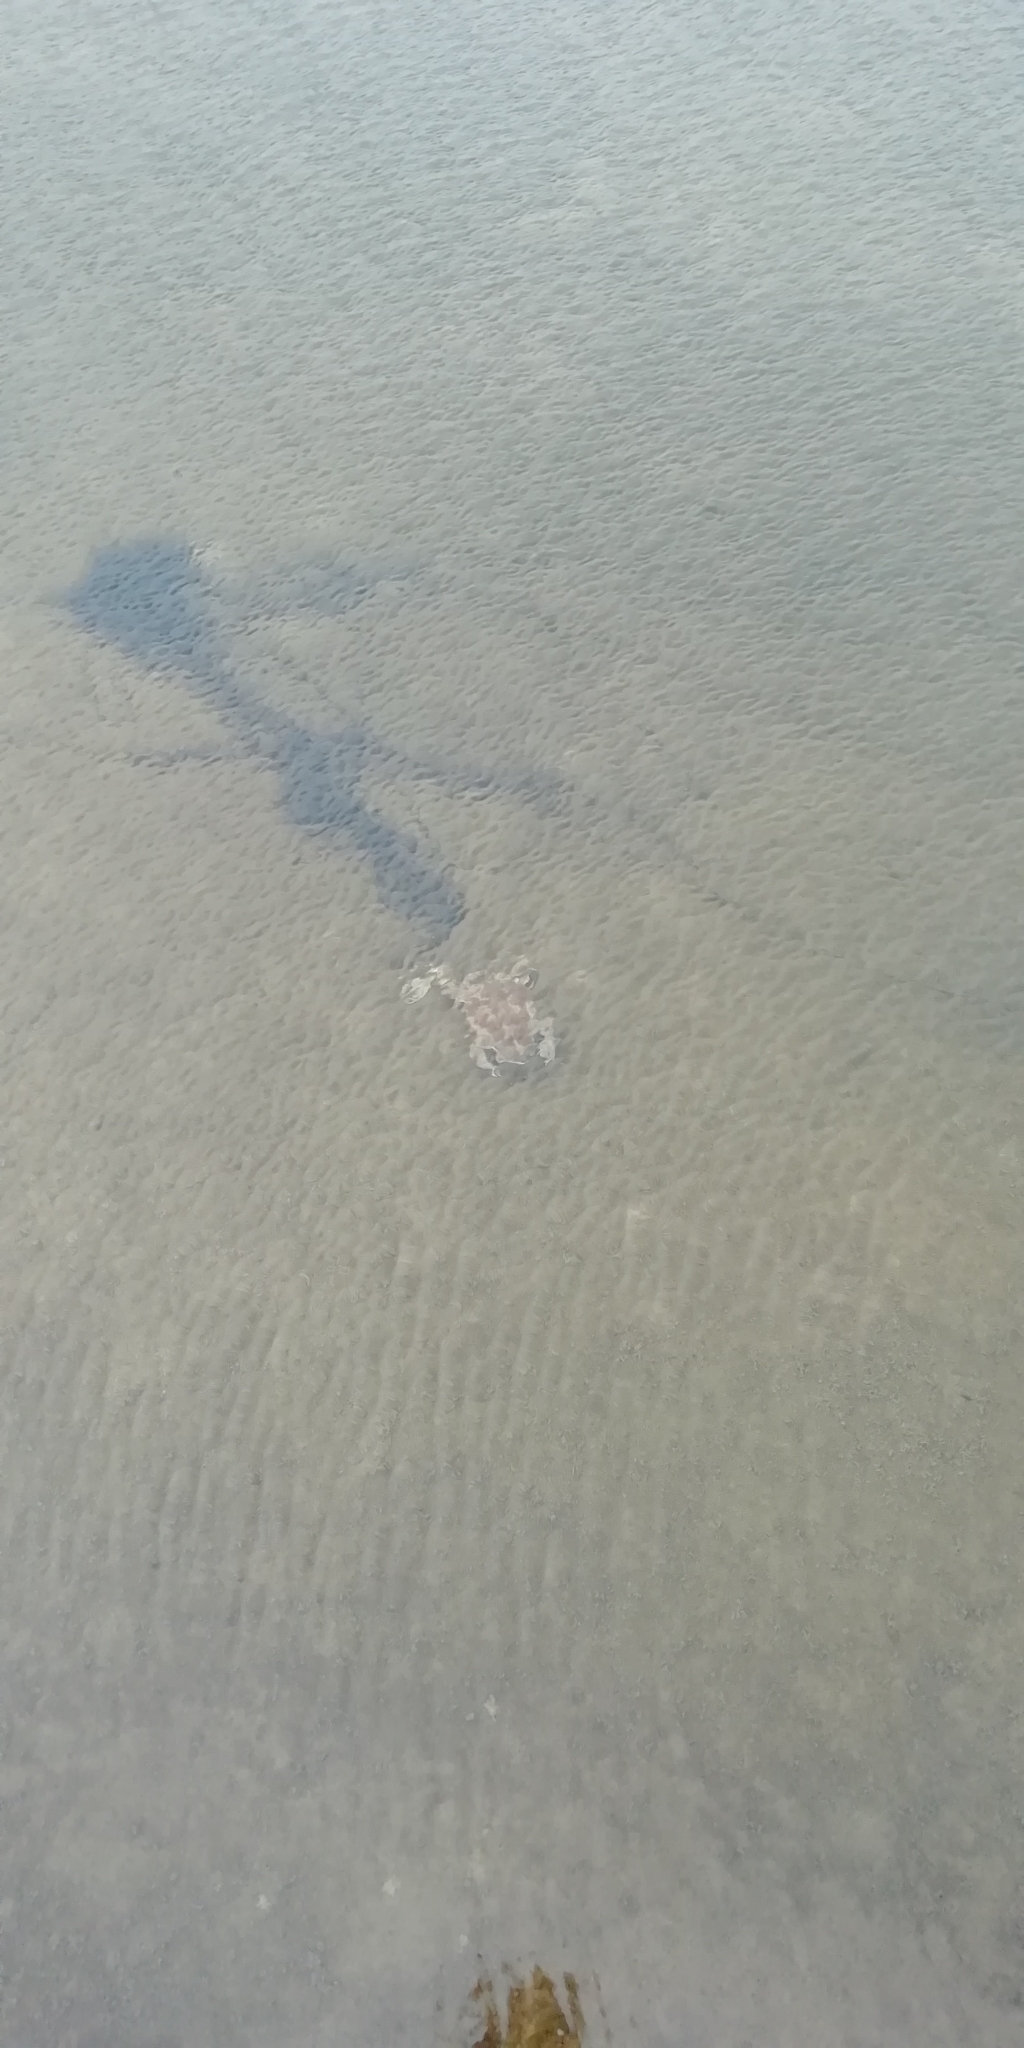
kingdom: Animalia
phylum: Chordata
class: Amphibia
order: Anura
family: Bufonidae
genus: Rhinella
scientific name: Rhinella arenarum
